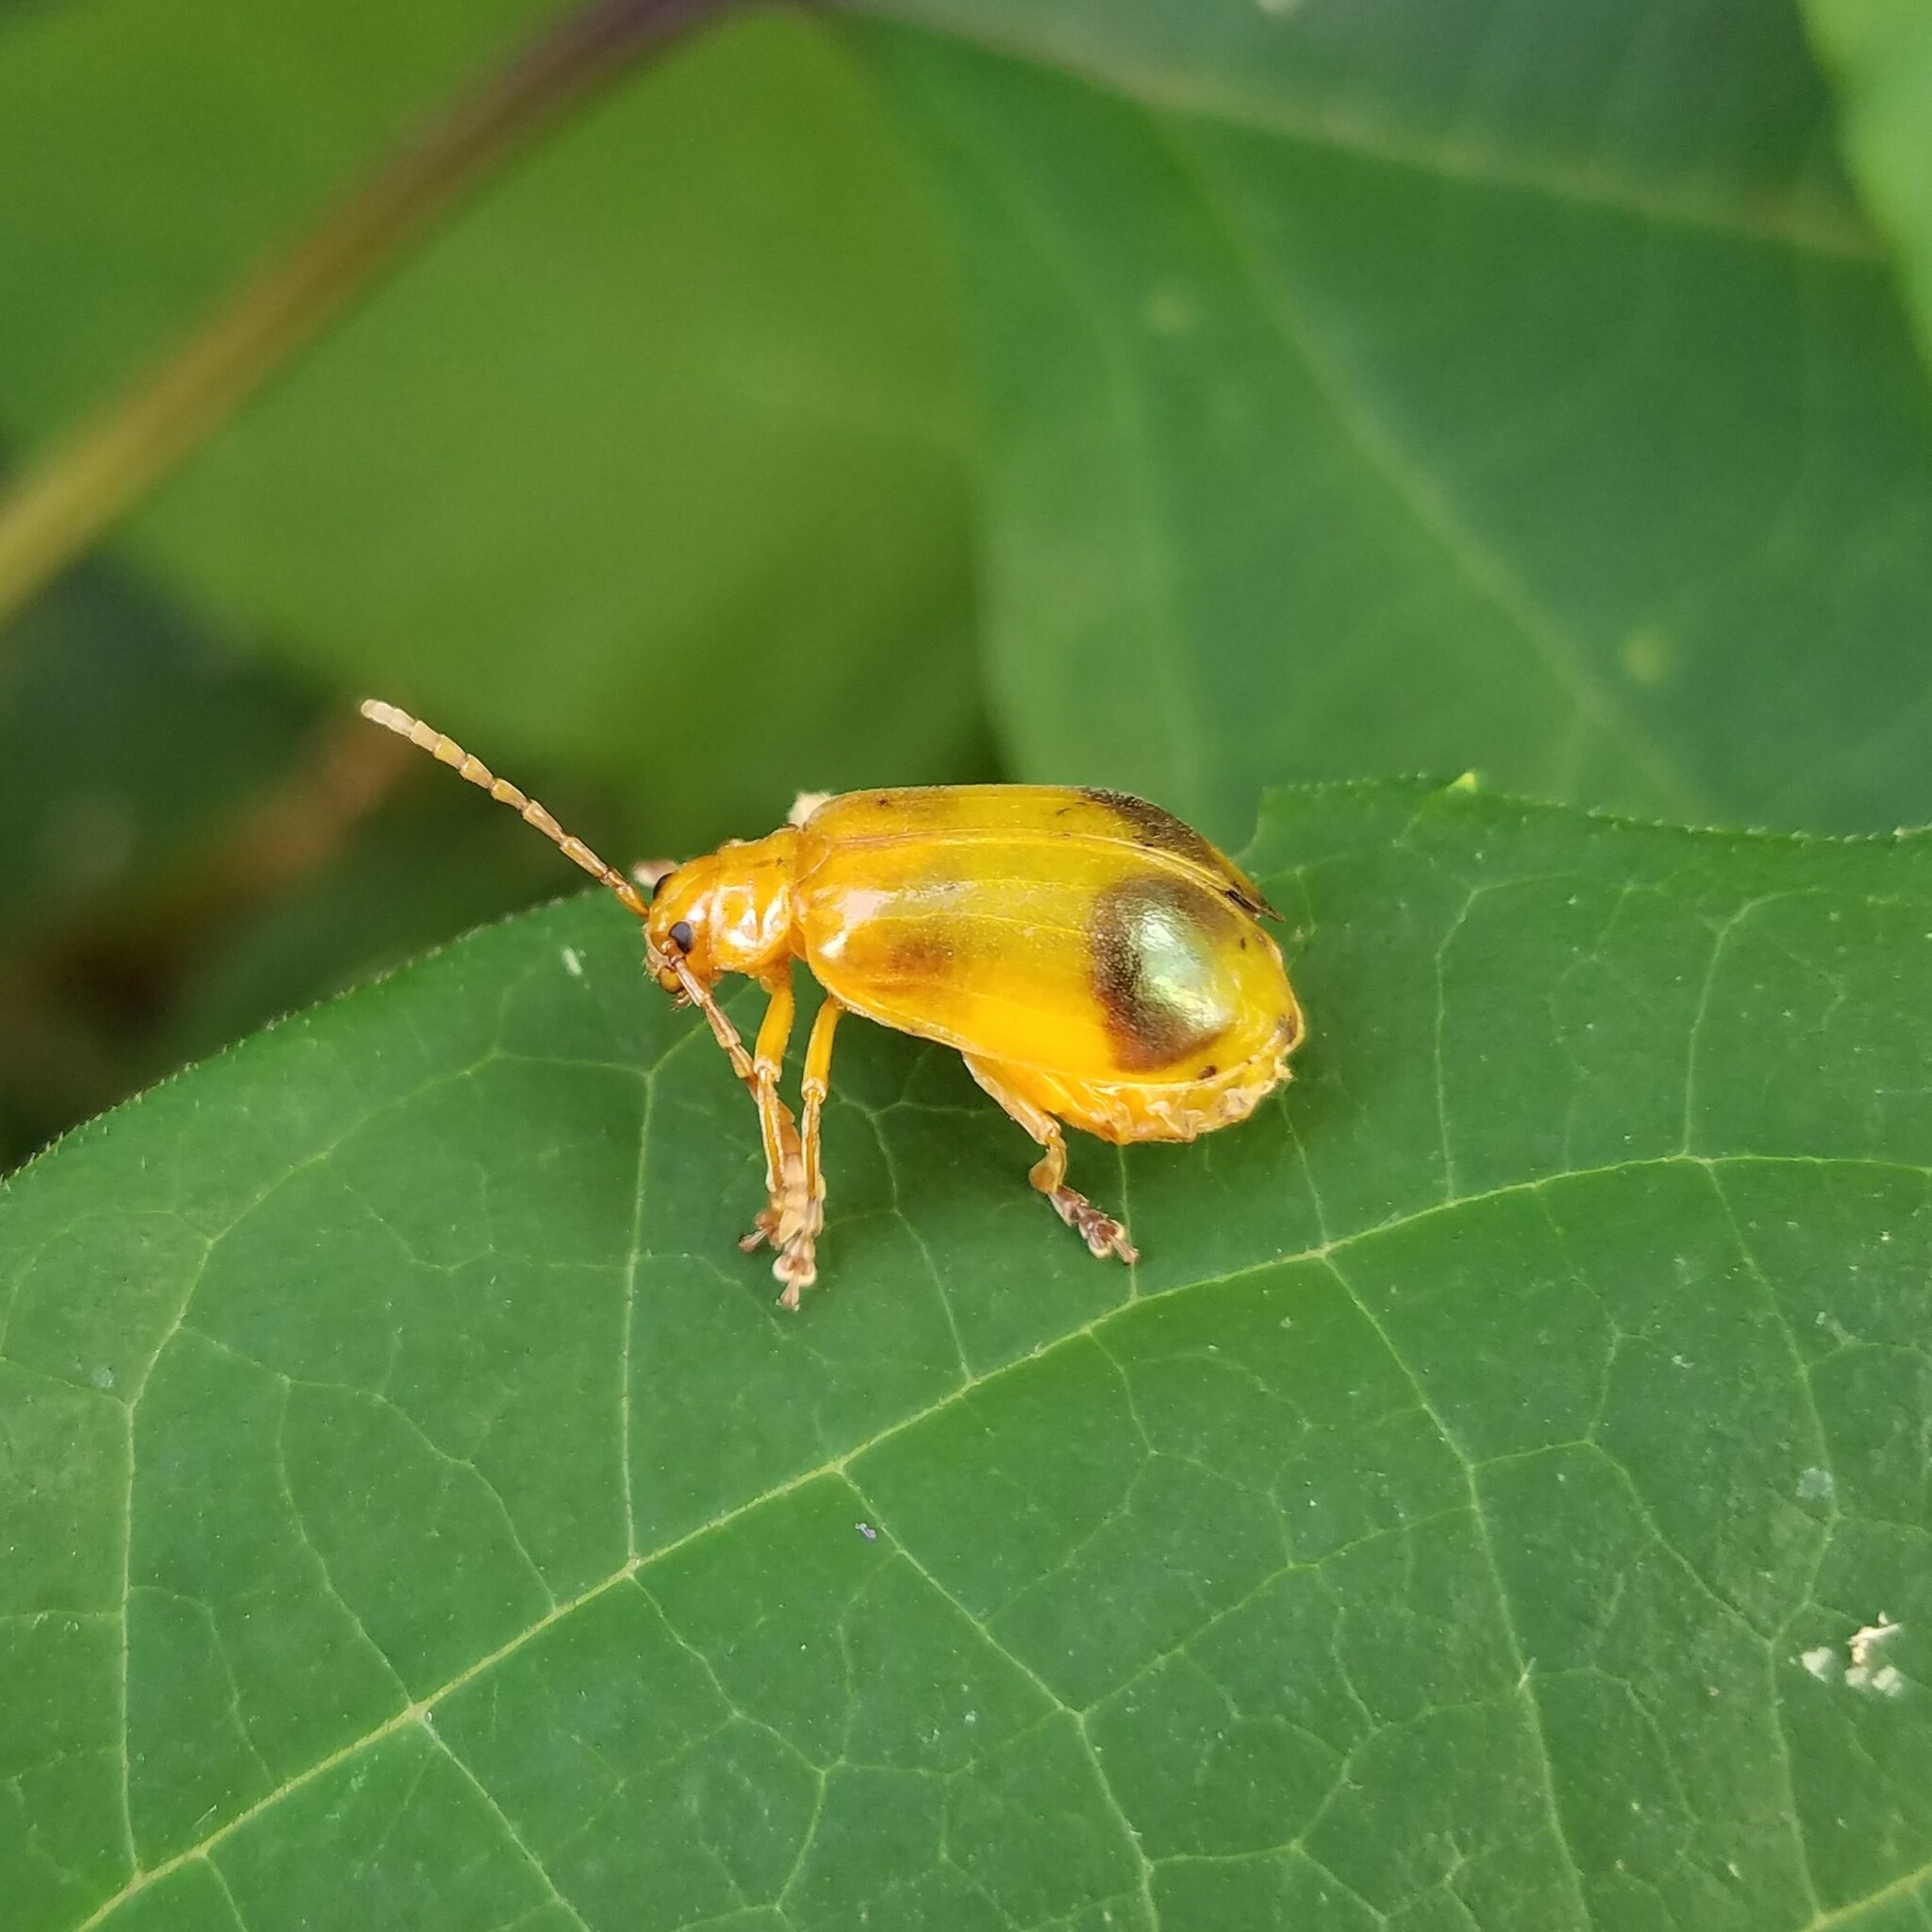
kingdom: Animalia
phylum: Arthropoda
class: Insecta
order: Coleoptera
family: Chrysomelidae
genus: Monocesta
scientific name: Monocesta coryli
